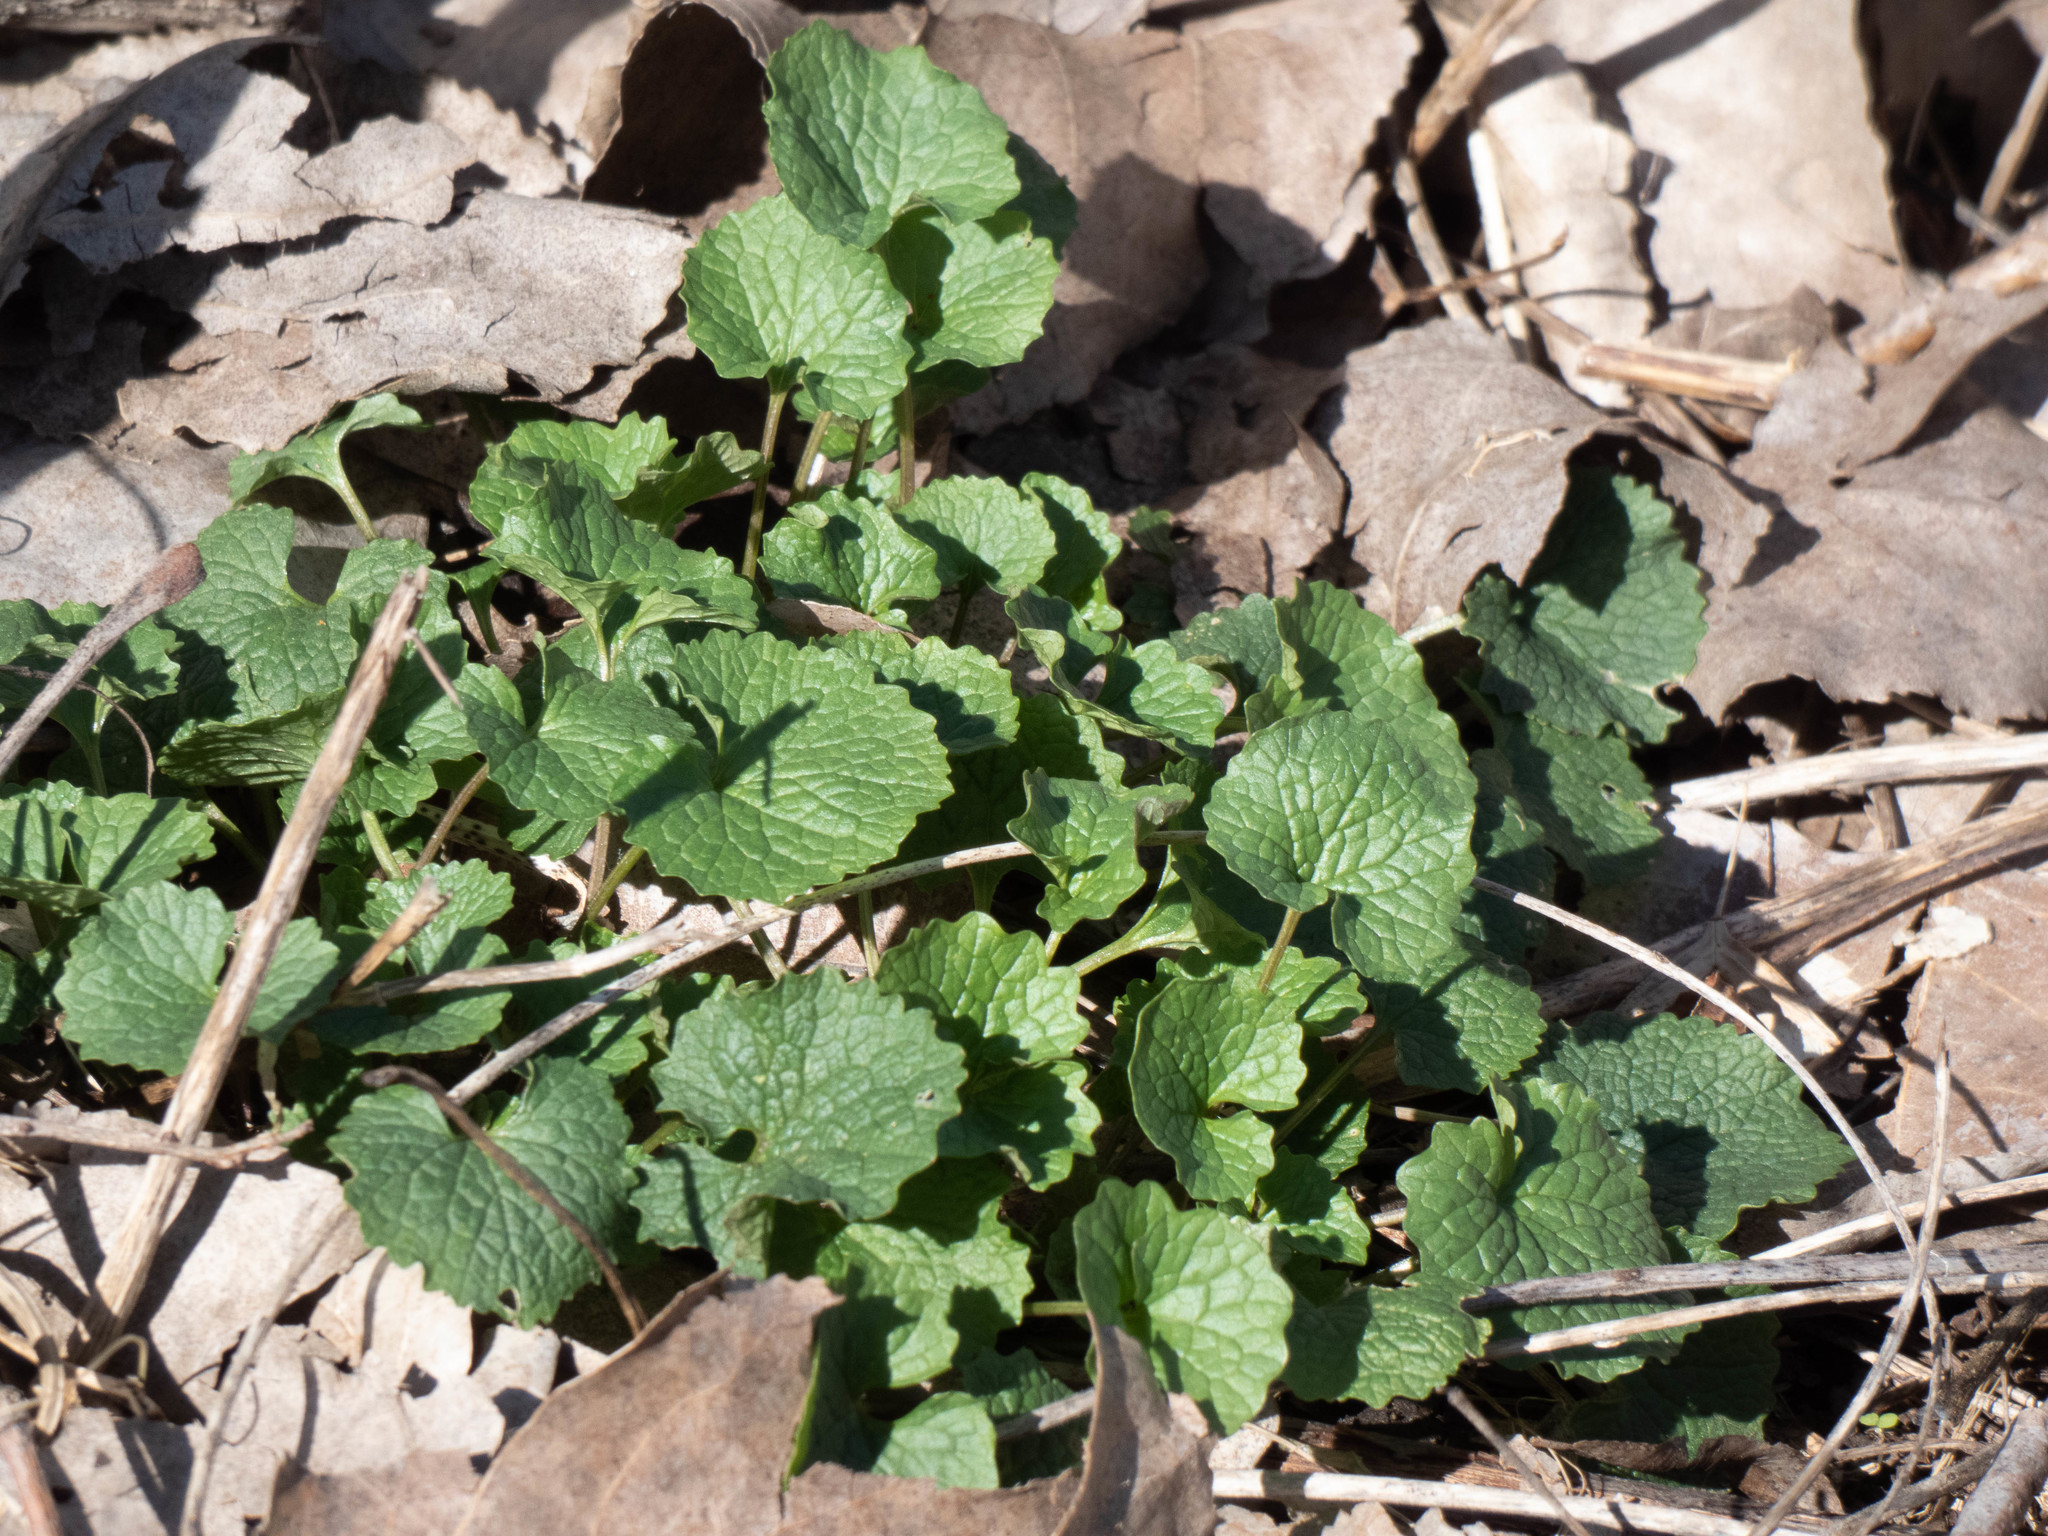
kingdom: Plantae
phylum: Tracheophyta
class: Magnoliopsida
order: Brassicales
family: Brassicaceae
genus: Alliaria
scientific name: Alliaria petiolata
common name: Garlic mustard
